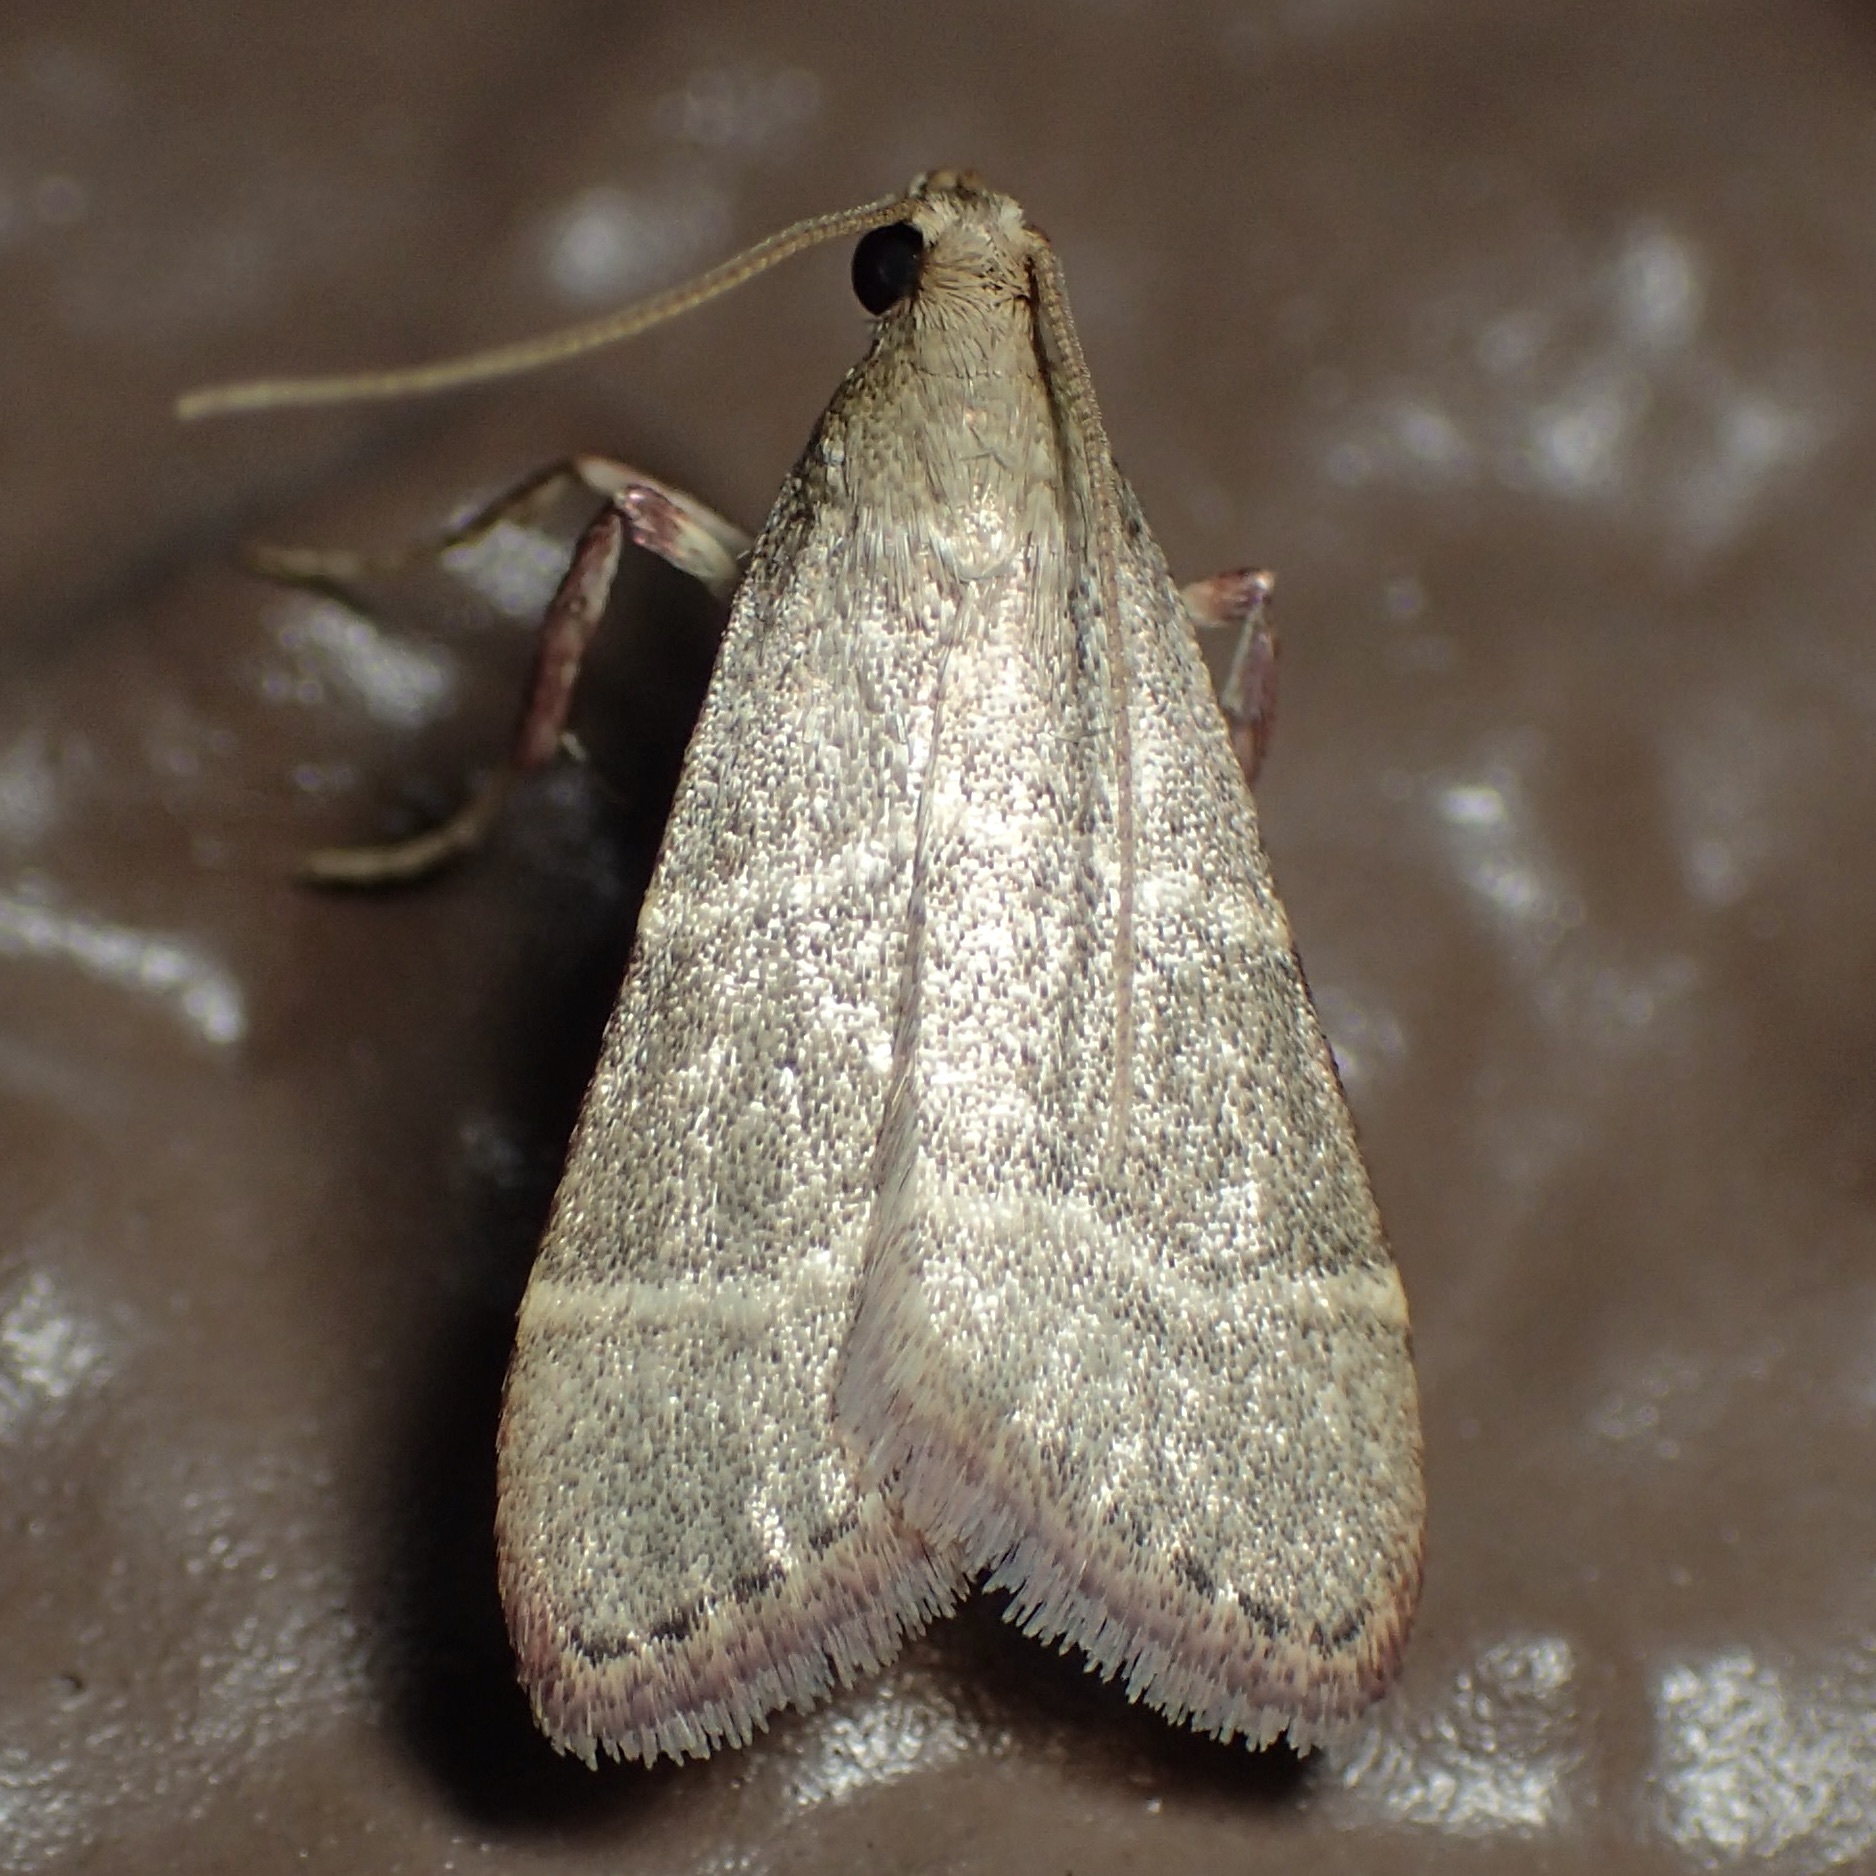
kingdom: Animalia
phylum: Arthropoda
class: Insecta
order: Lepidoptera
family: Pyralidae
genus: Caphys
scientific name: Caphys arizonensis
